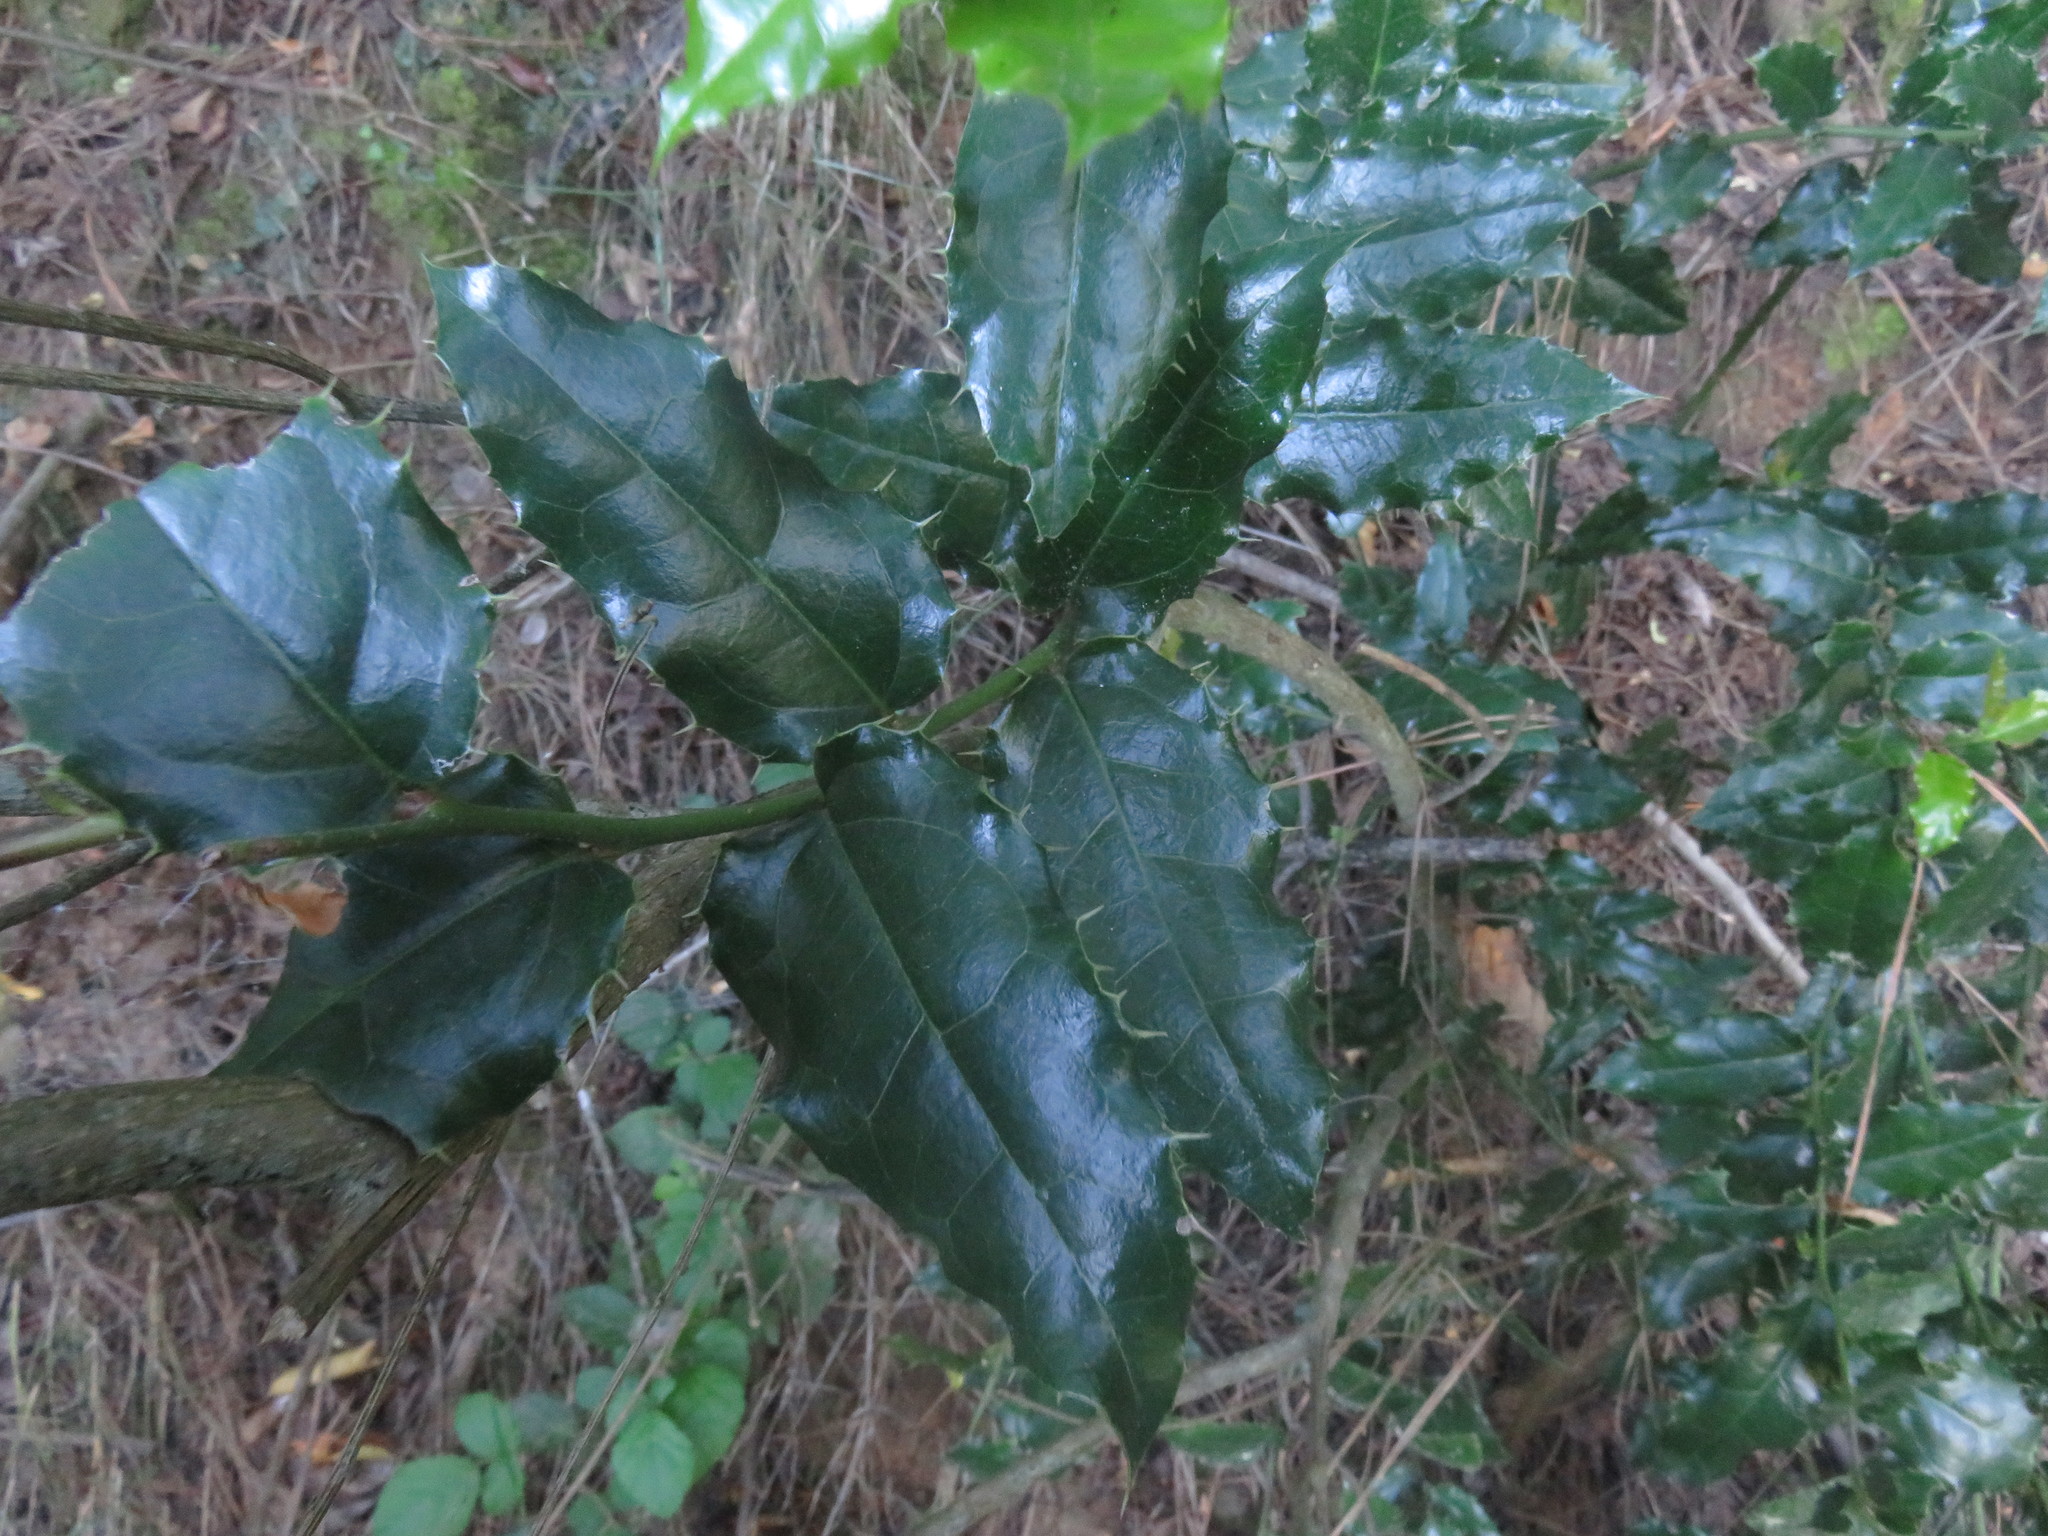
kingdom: Plantae
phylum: Tracheophyta
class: Magnoliopsida
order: Cardiopteridales
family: Cardiopteridaceae
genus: Citronella
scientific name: Citronella mucronata
